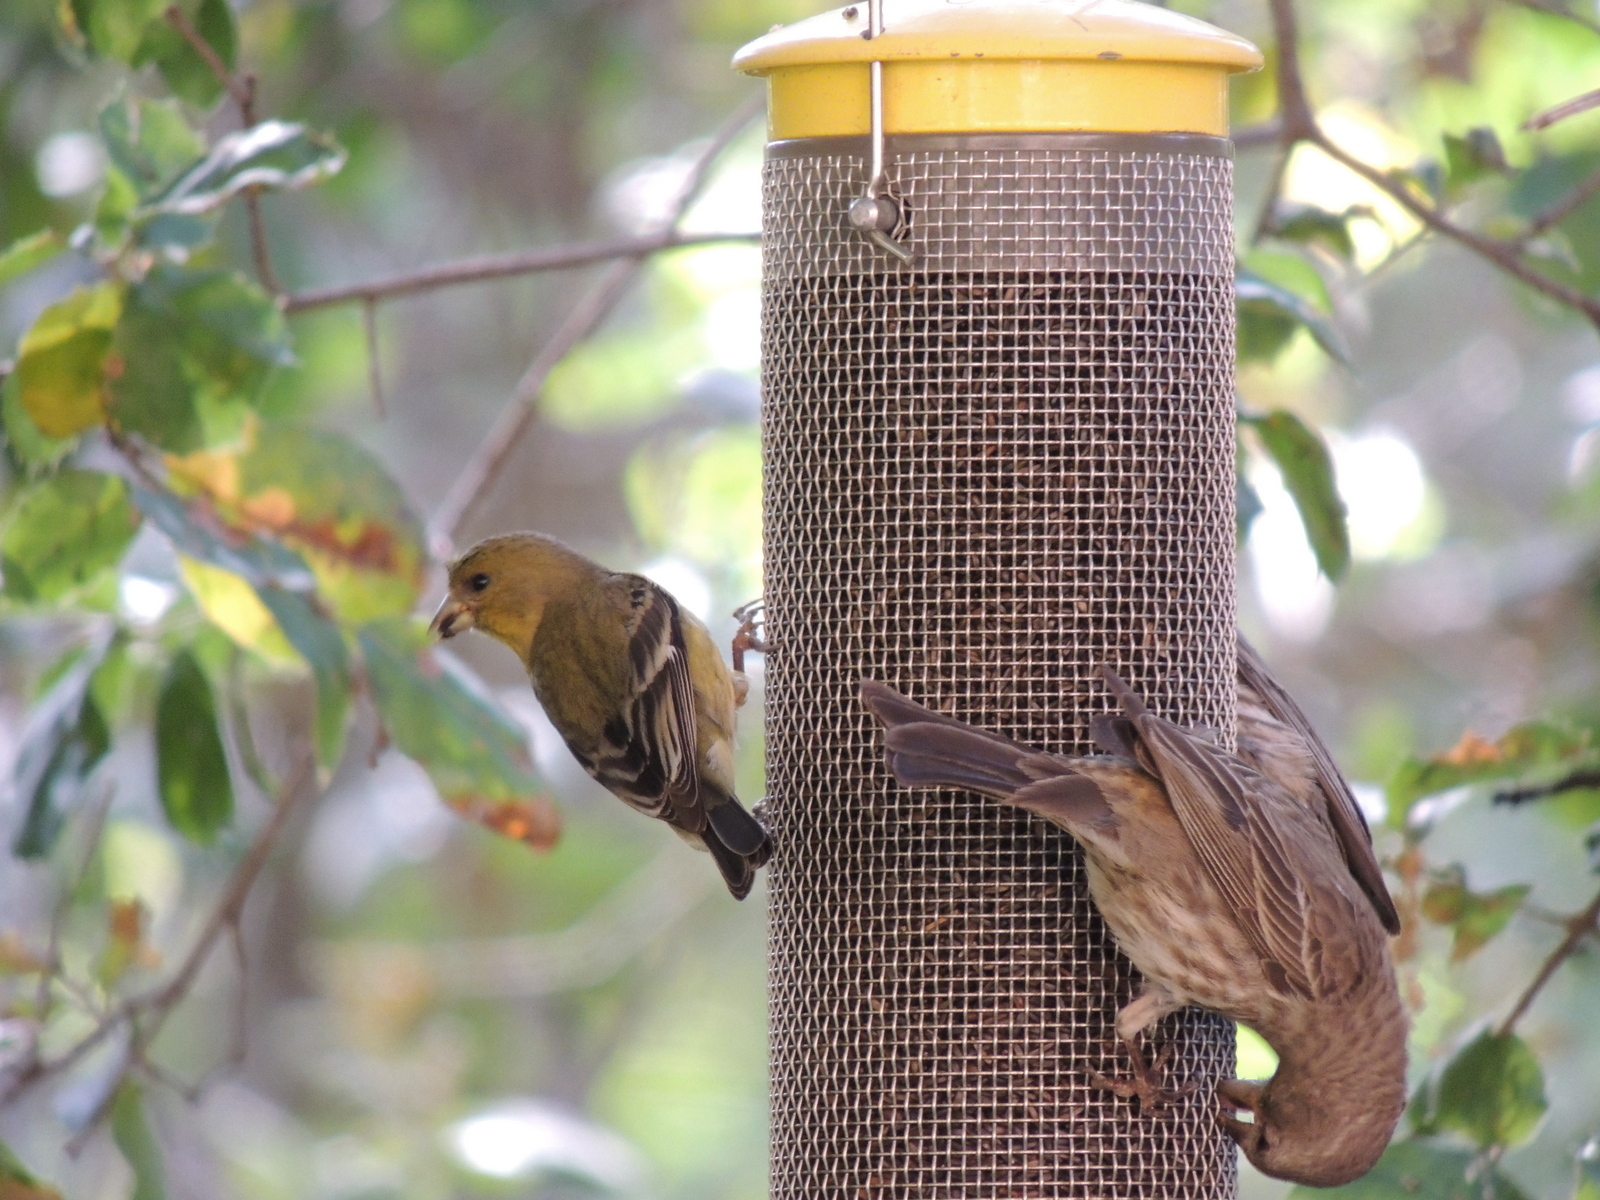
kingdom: Animalia
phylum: Chordata
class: Aves
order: Passeriformes
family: Fringillidae
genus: Spinus
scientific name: Spinus psaltria
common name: Lesser goldfinch
